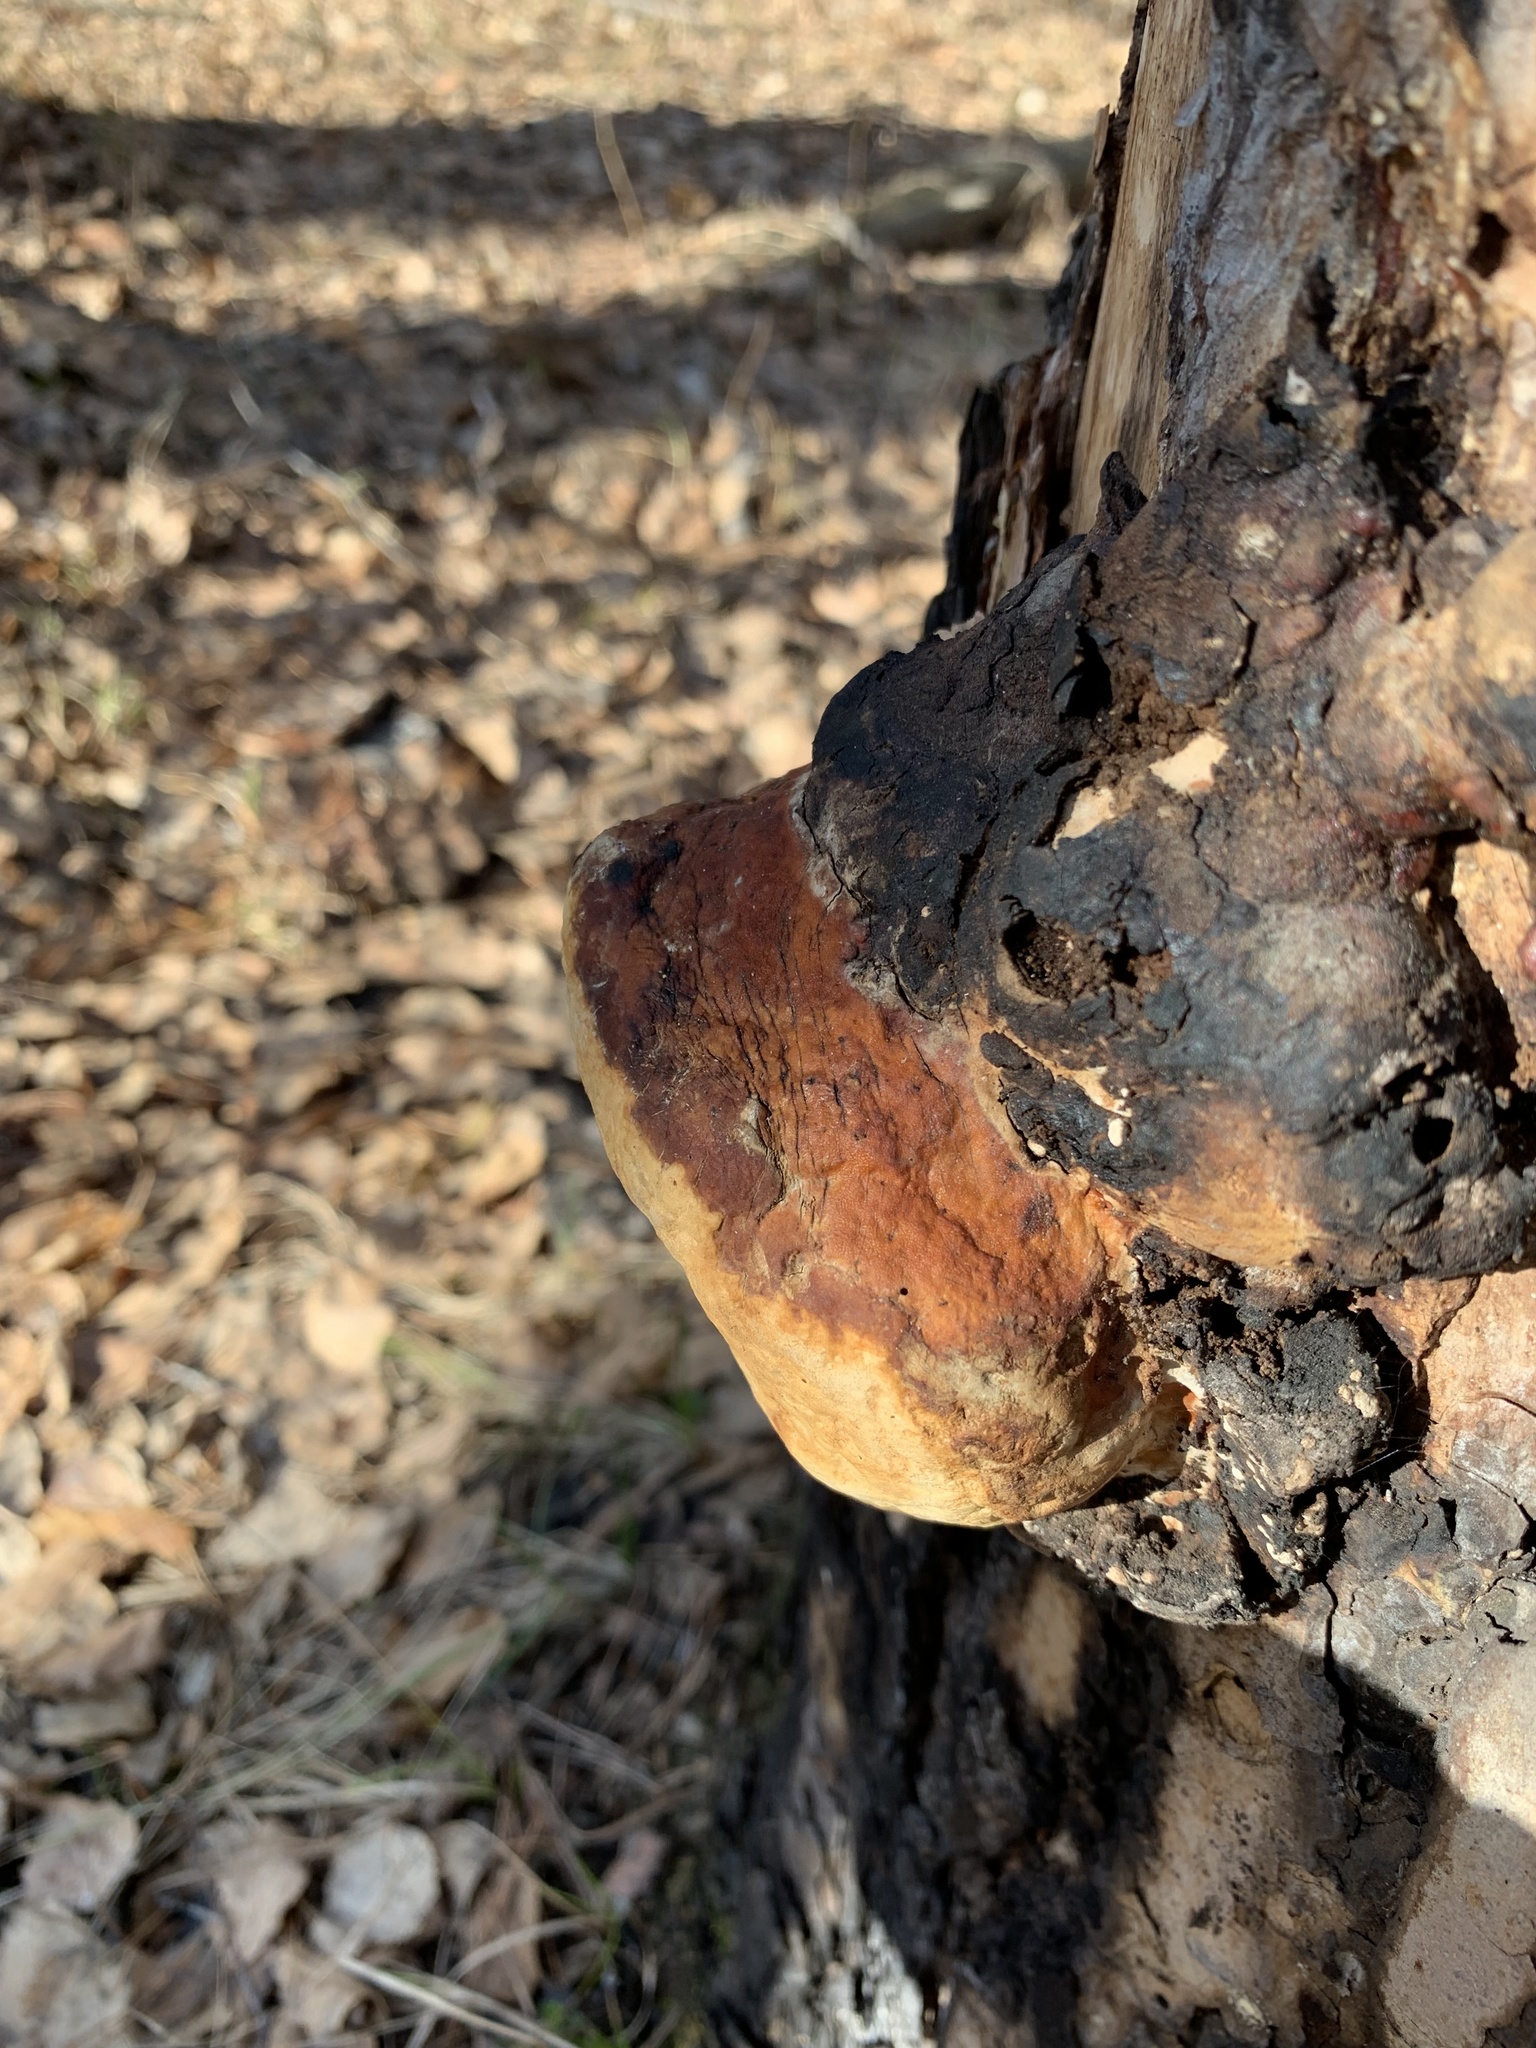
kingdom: Fungi
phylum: Basidiomycota
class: Agaricomycetes
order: Polyporales
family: Fomitopsidaceae
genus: Fomitopsis
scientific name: Fomitopsis pinicola
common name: Red-belted bracket
